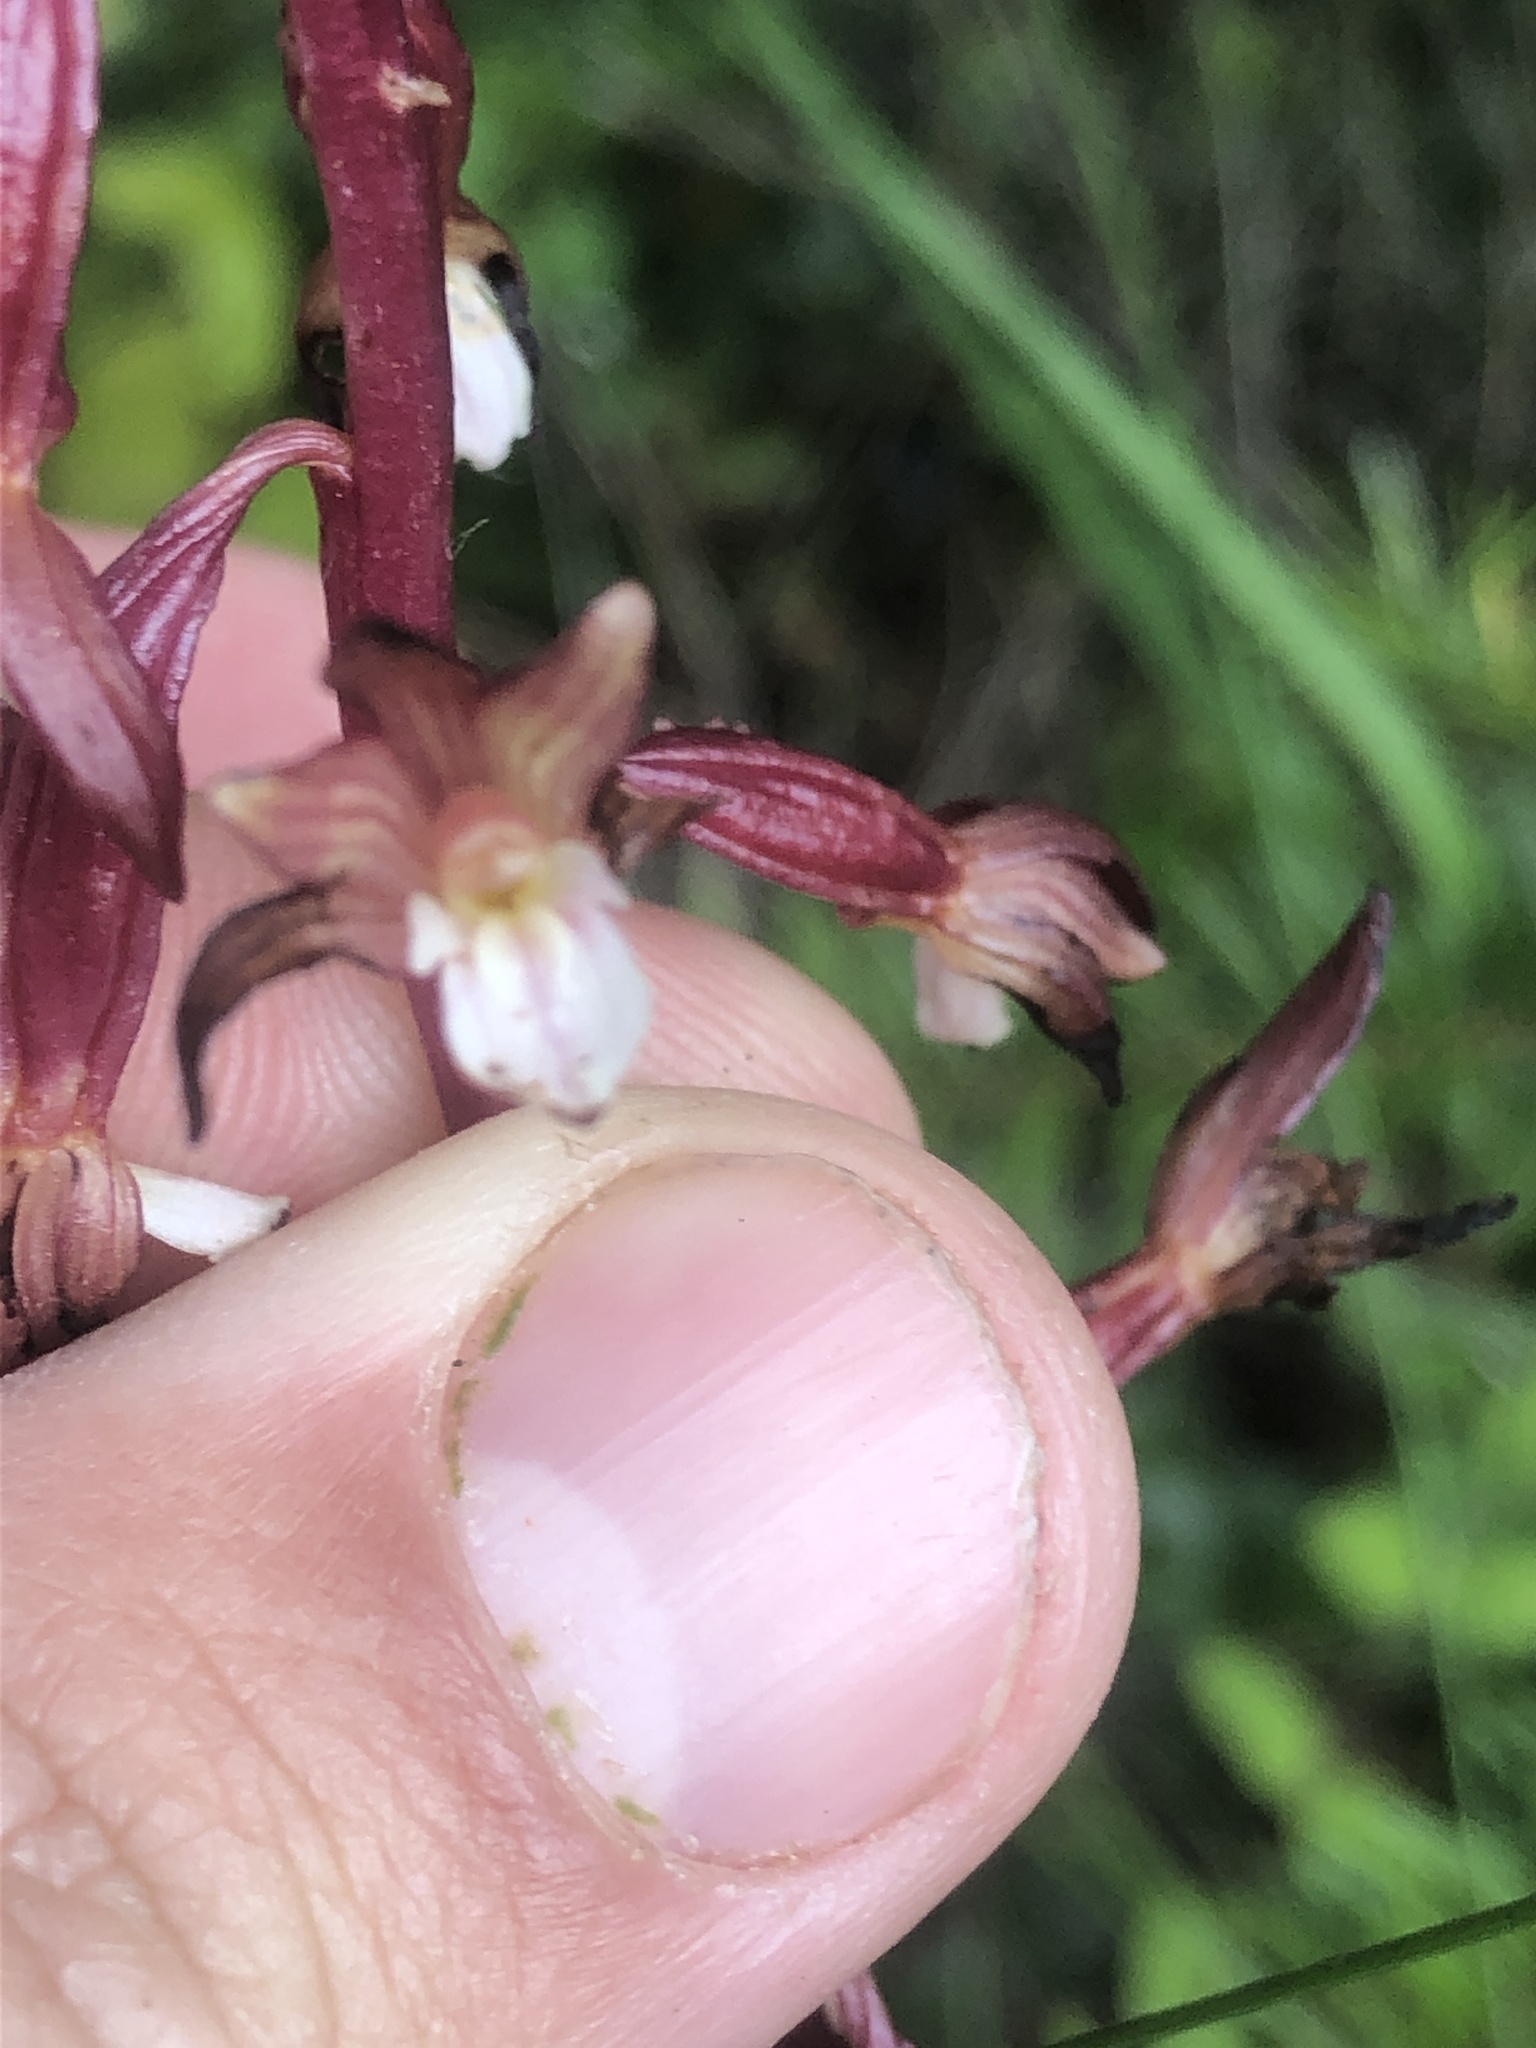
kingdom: Plantae
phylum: Tracheophyta
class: Liliopsida
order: Asparagales
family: Orchidaceae
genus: Corallorhiza
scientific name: Corallorhiza maculata
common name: Spotted coralroot
